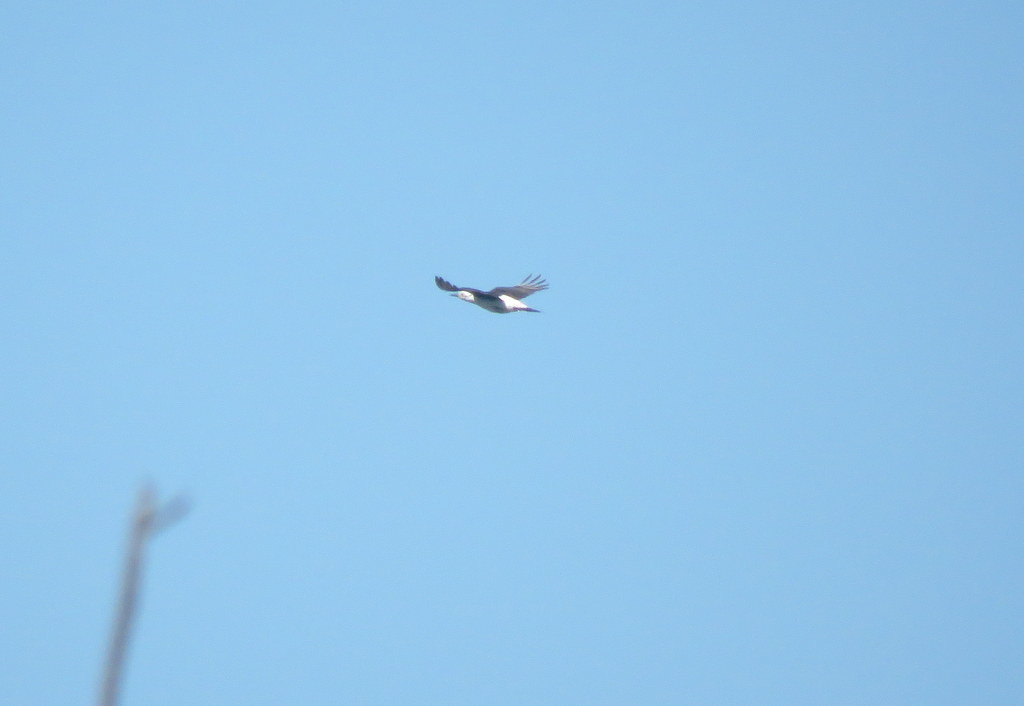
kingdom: Animalia
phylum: Chordata
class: Aves
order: Piciformes
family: Picidae
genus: Melanerpes
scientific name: Melanerpes candidus
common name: White woodpecker
